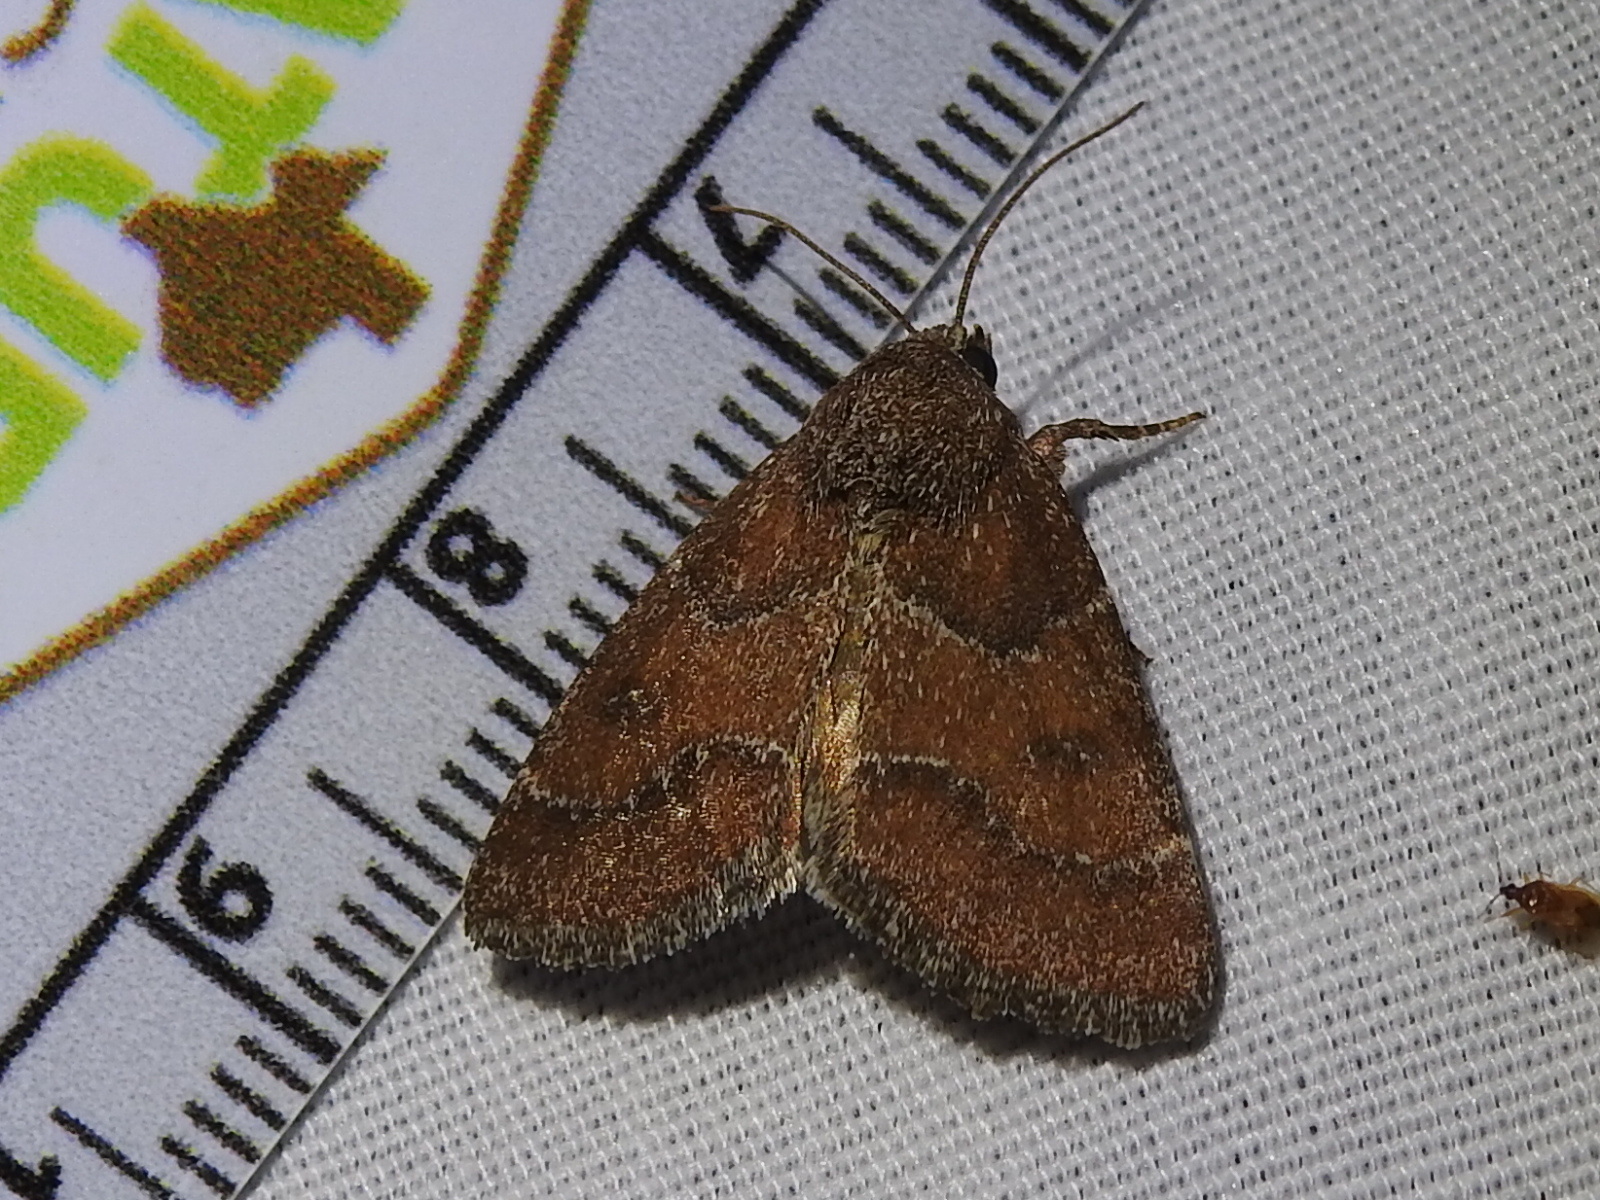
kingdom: Animalia
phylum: Arthropoda
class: Insecta
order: Lepidoptera
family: Noctuidae
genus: Schinia
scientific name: Schinia saturata
